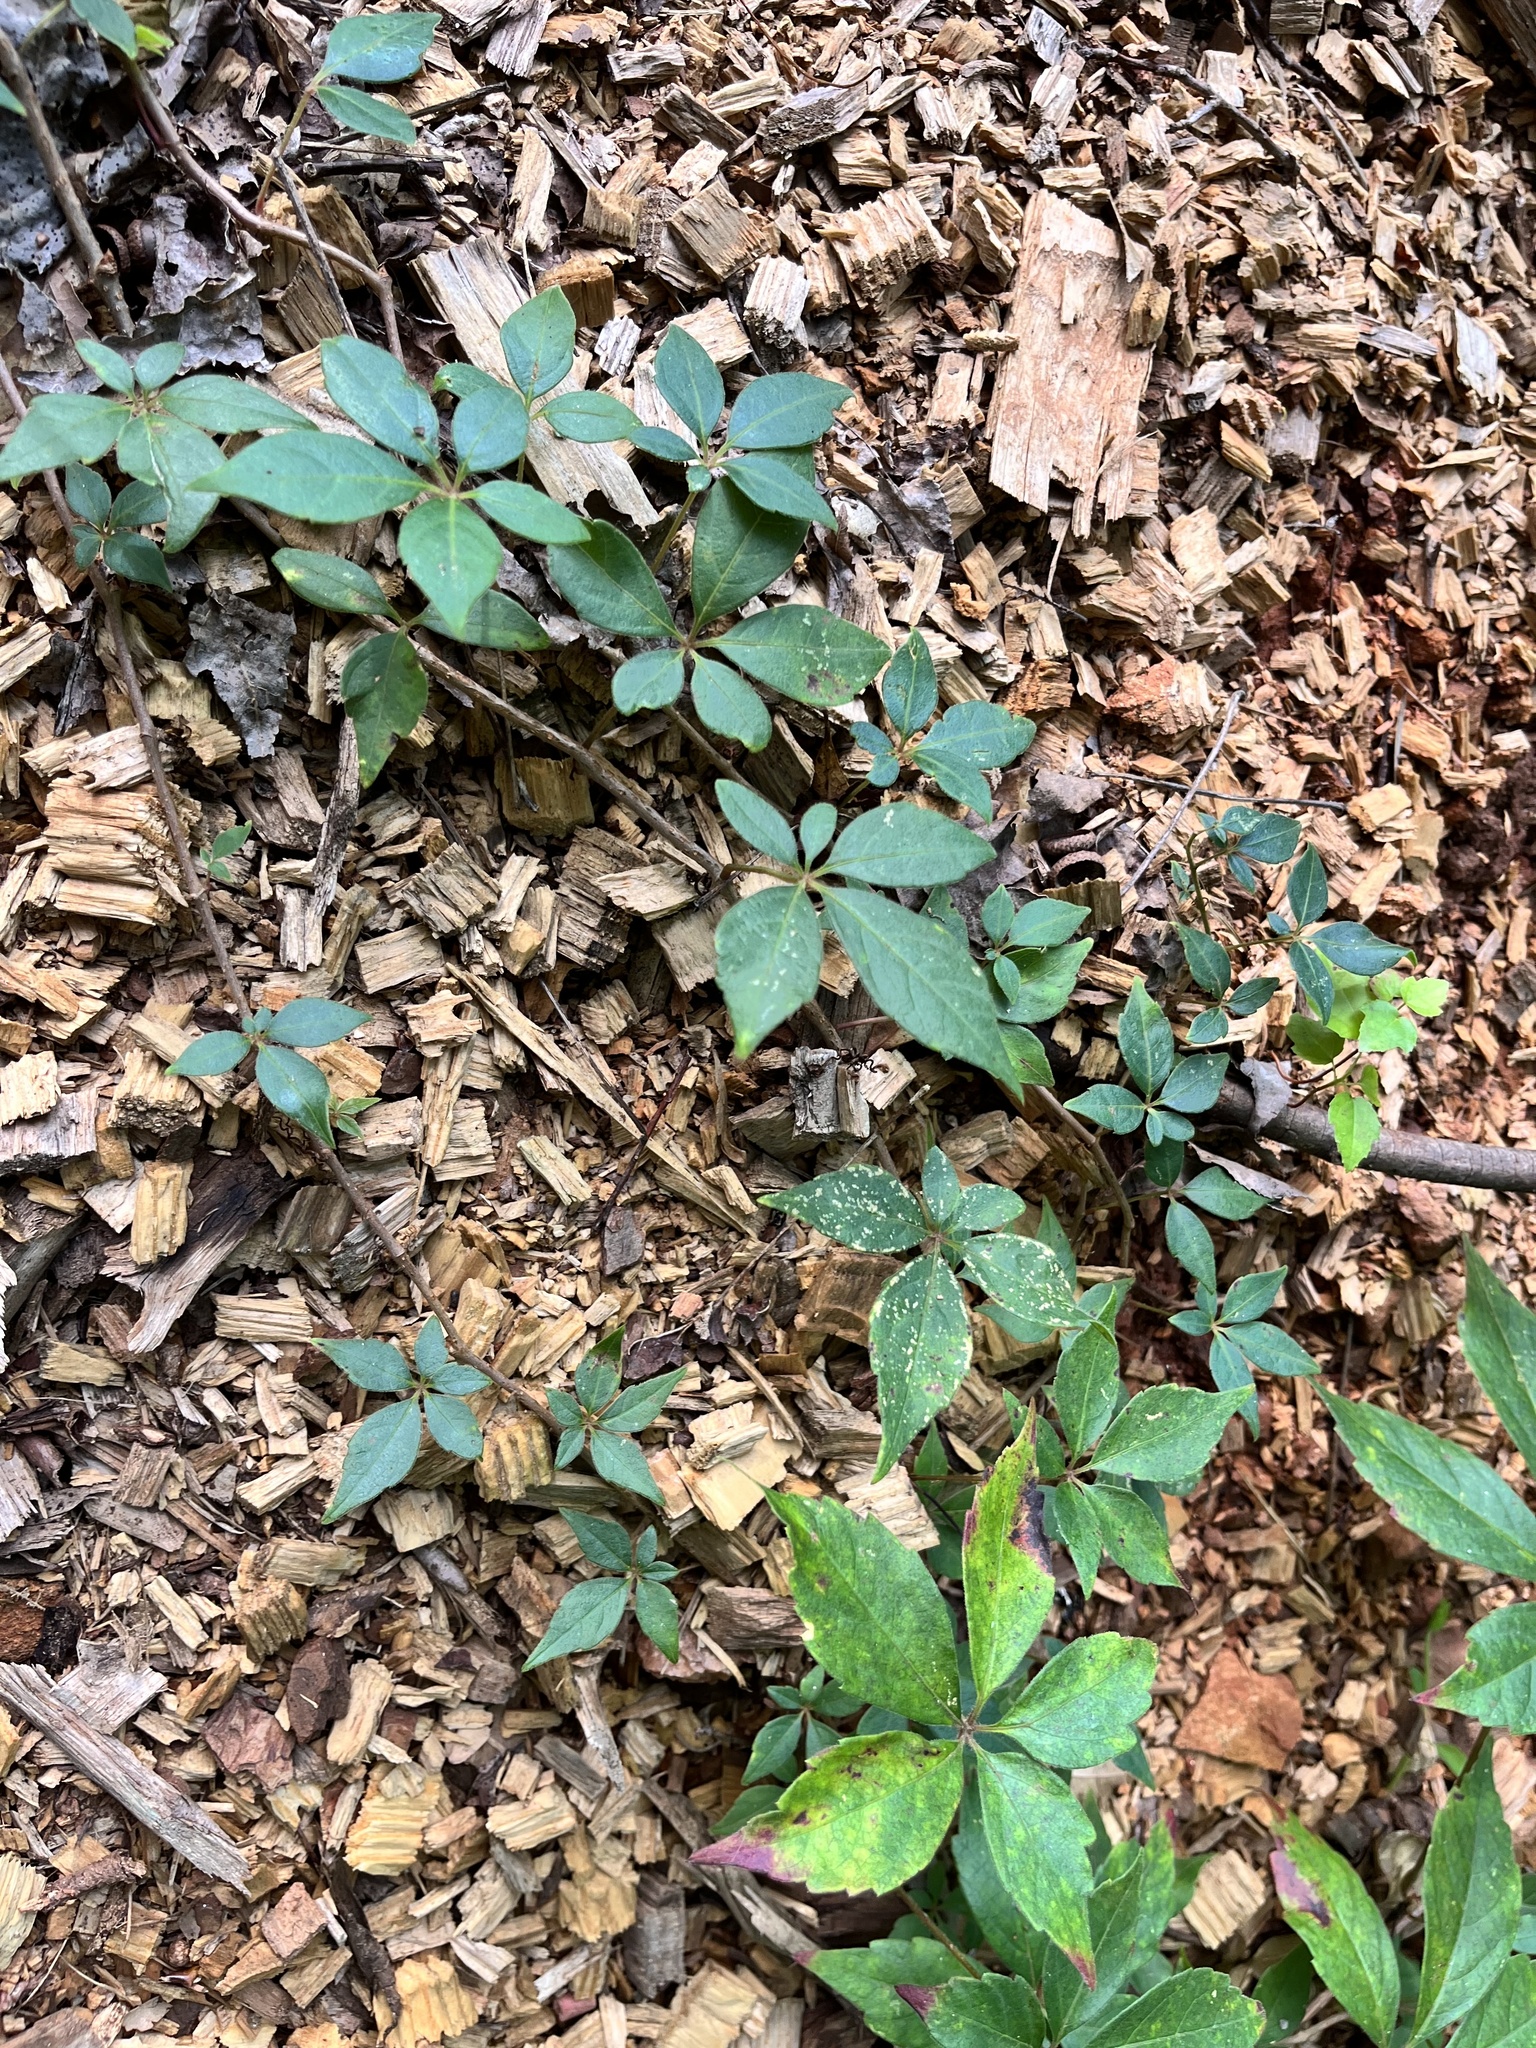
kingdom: Plantae
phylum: Tracheophyta
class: Magnoliopsida
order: Vitales
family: Vitaceae
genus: Parthenocissus
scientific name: Parthenocissus quinquefolia
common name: Virginia-creeper
